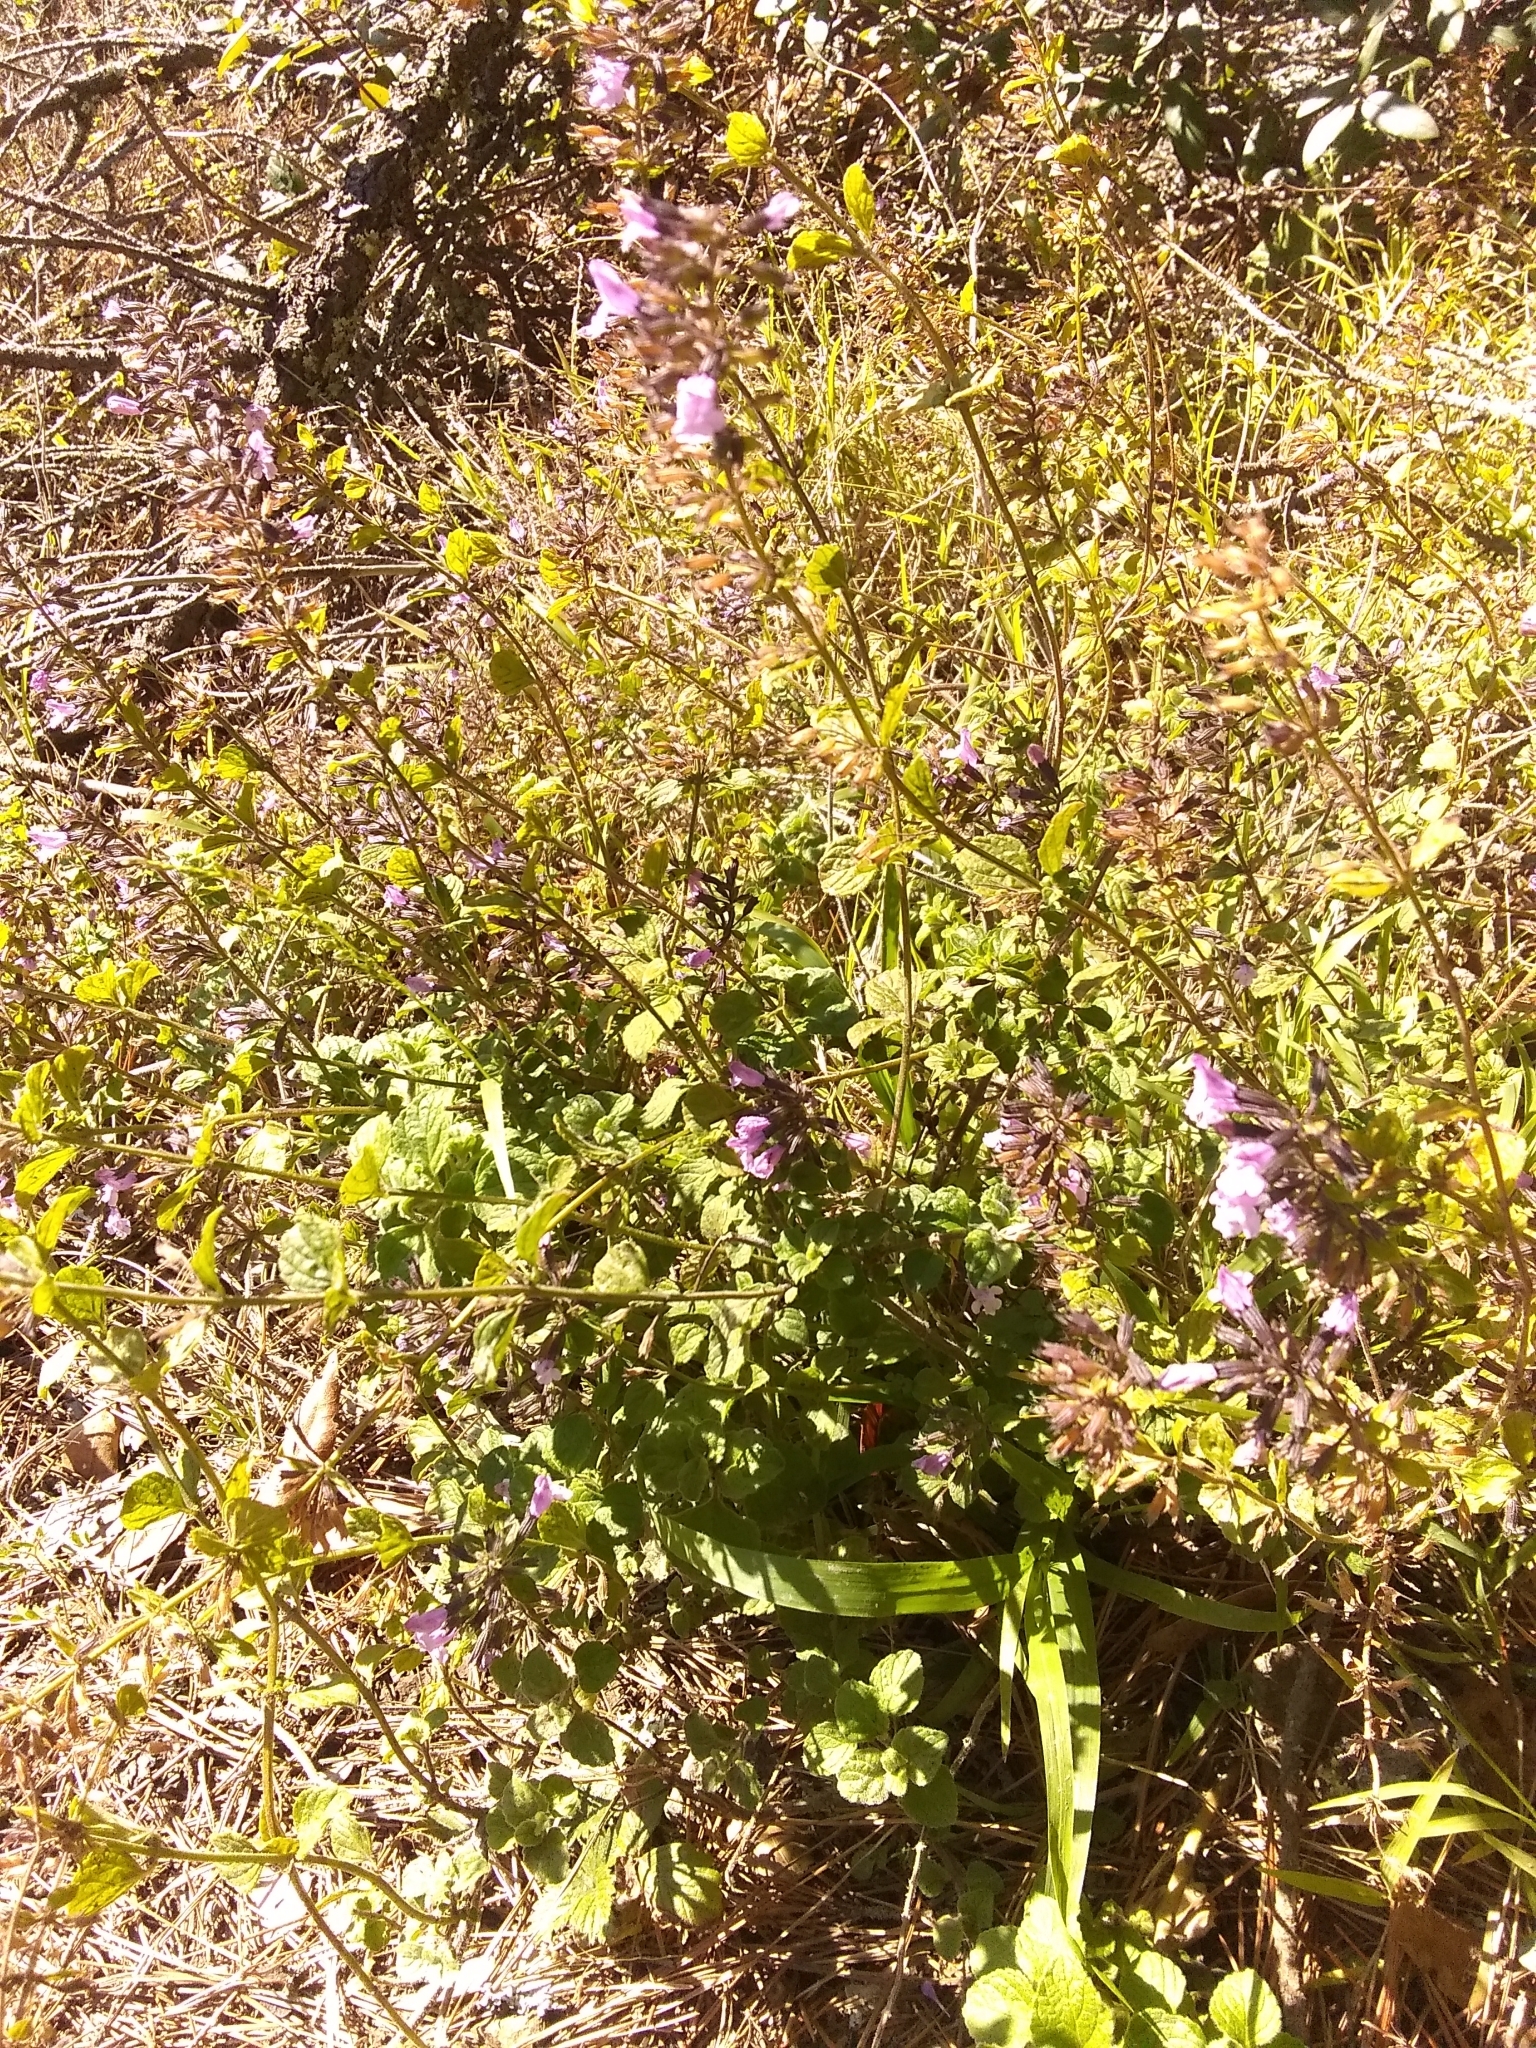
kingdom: Plantae
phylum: Tracheophyta
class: Magnoliopsida
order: Lamiales
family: Lamiaceae
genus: Clinopodium
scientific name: Clinopodium menthifolium
